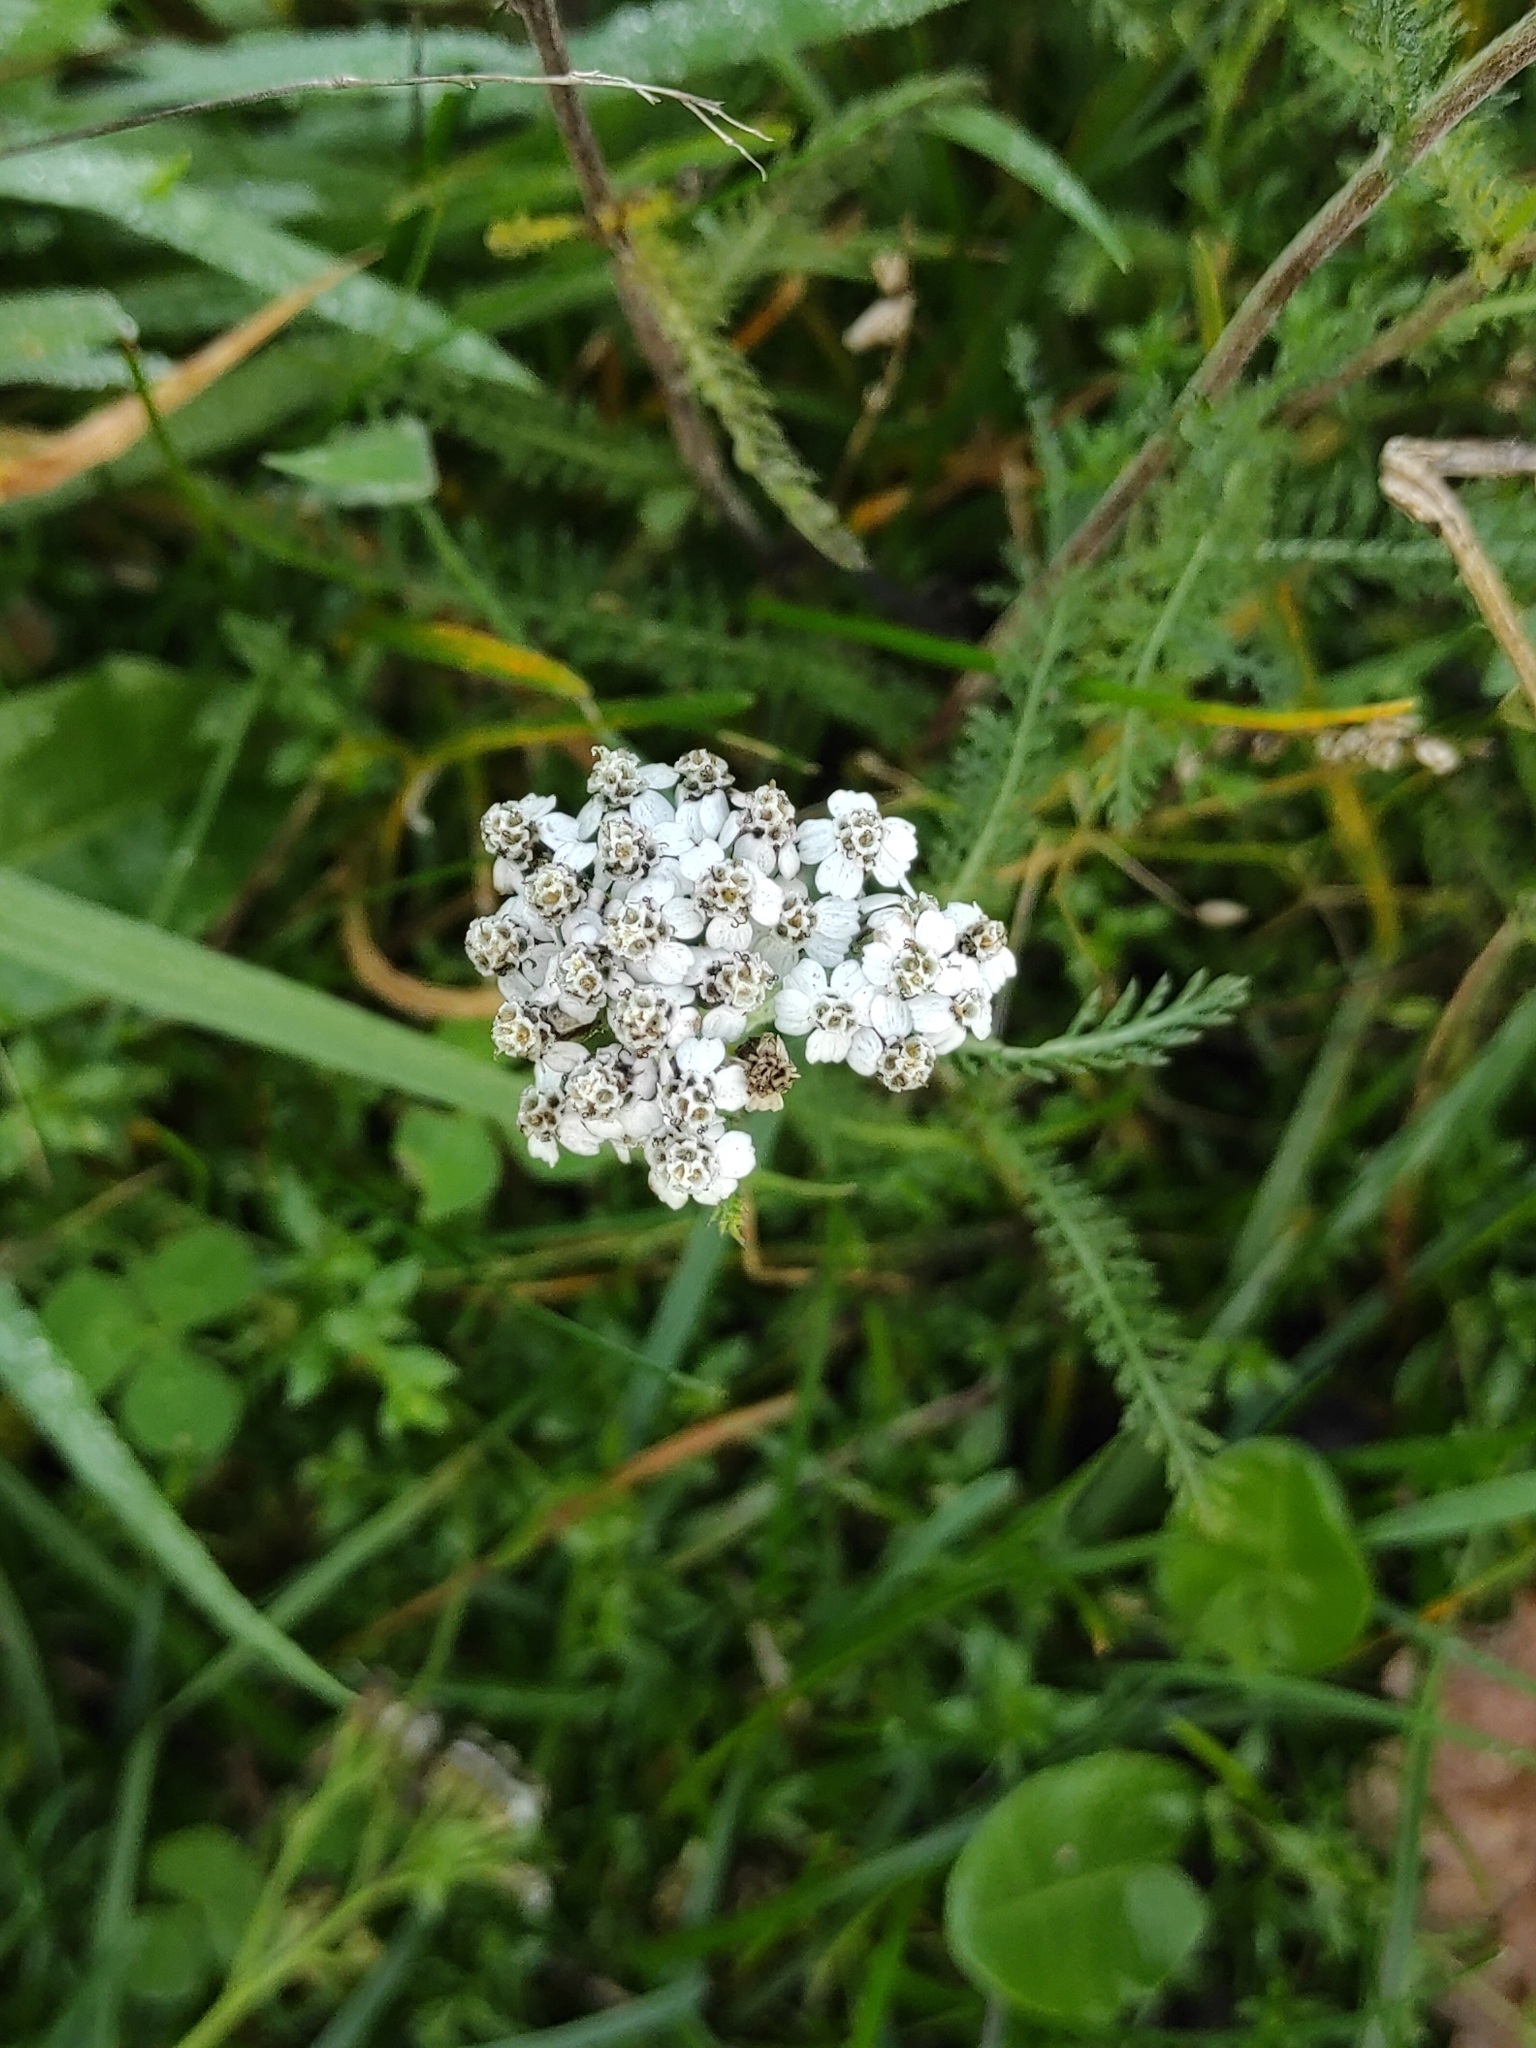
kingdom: Plantae
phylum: Tracheophyta
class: Magnoliopsida
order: Asterales
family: Asteraceae
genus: Achillea
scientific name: Achillea millefolium
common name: Yarrow
